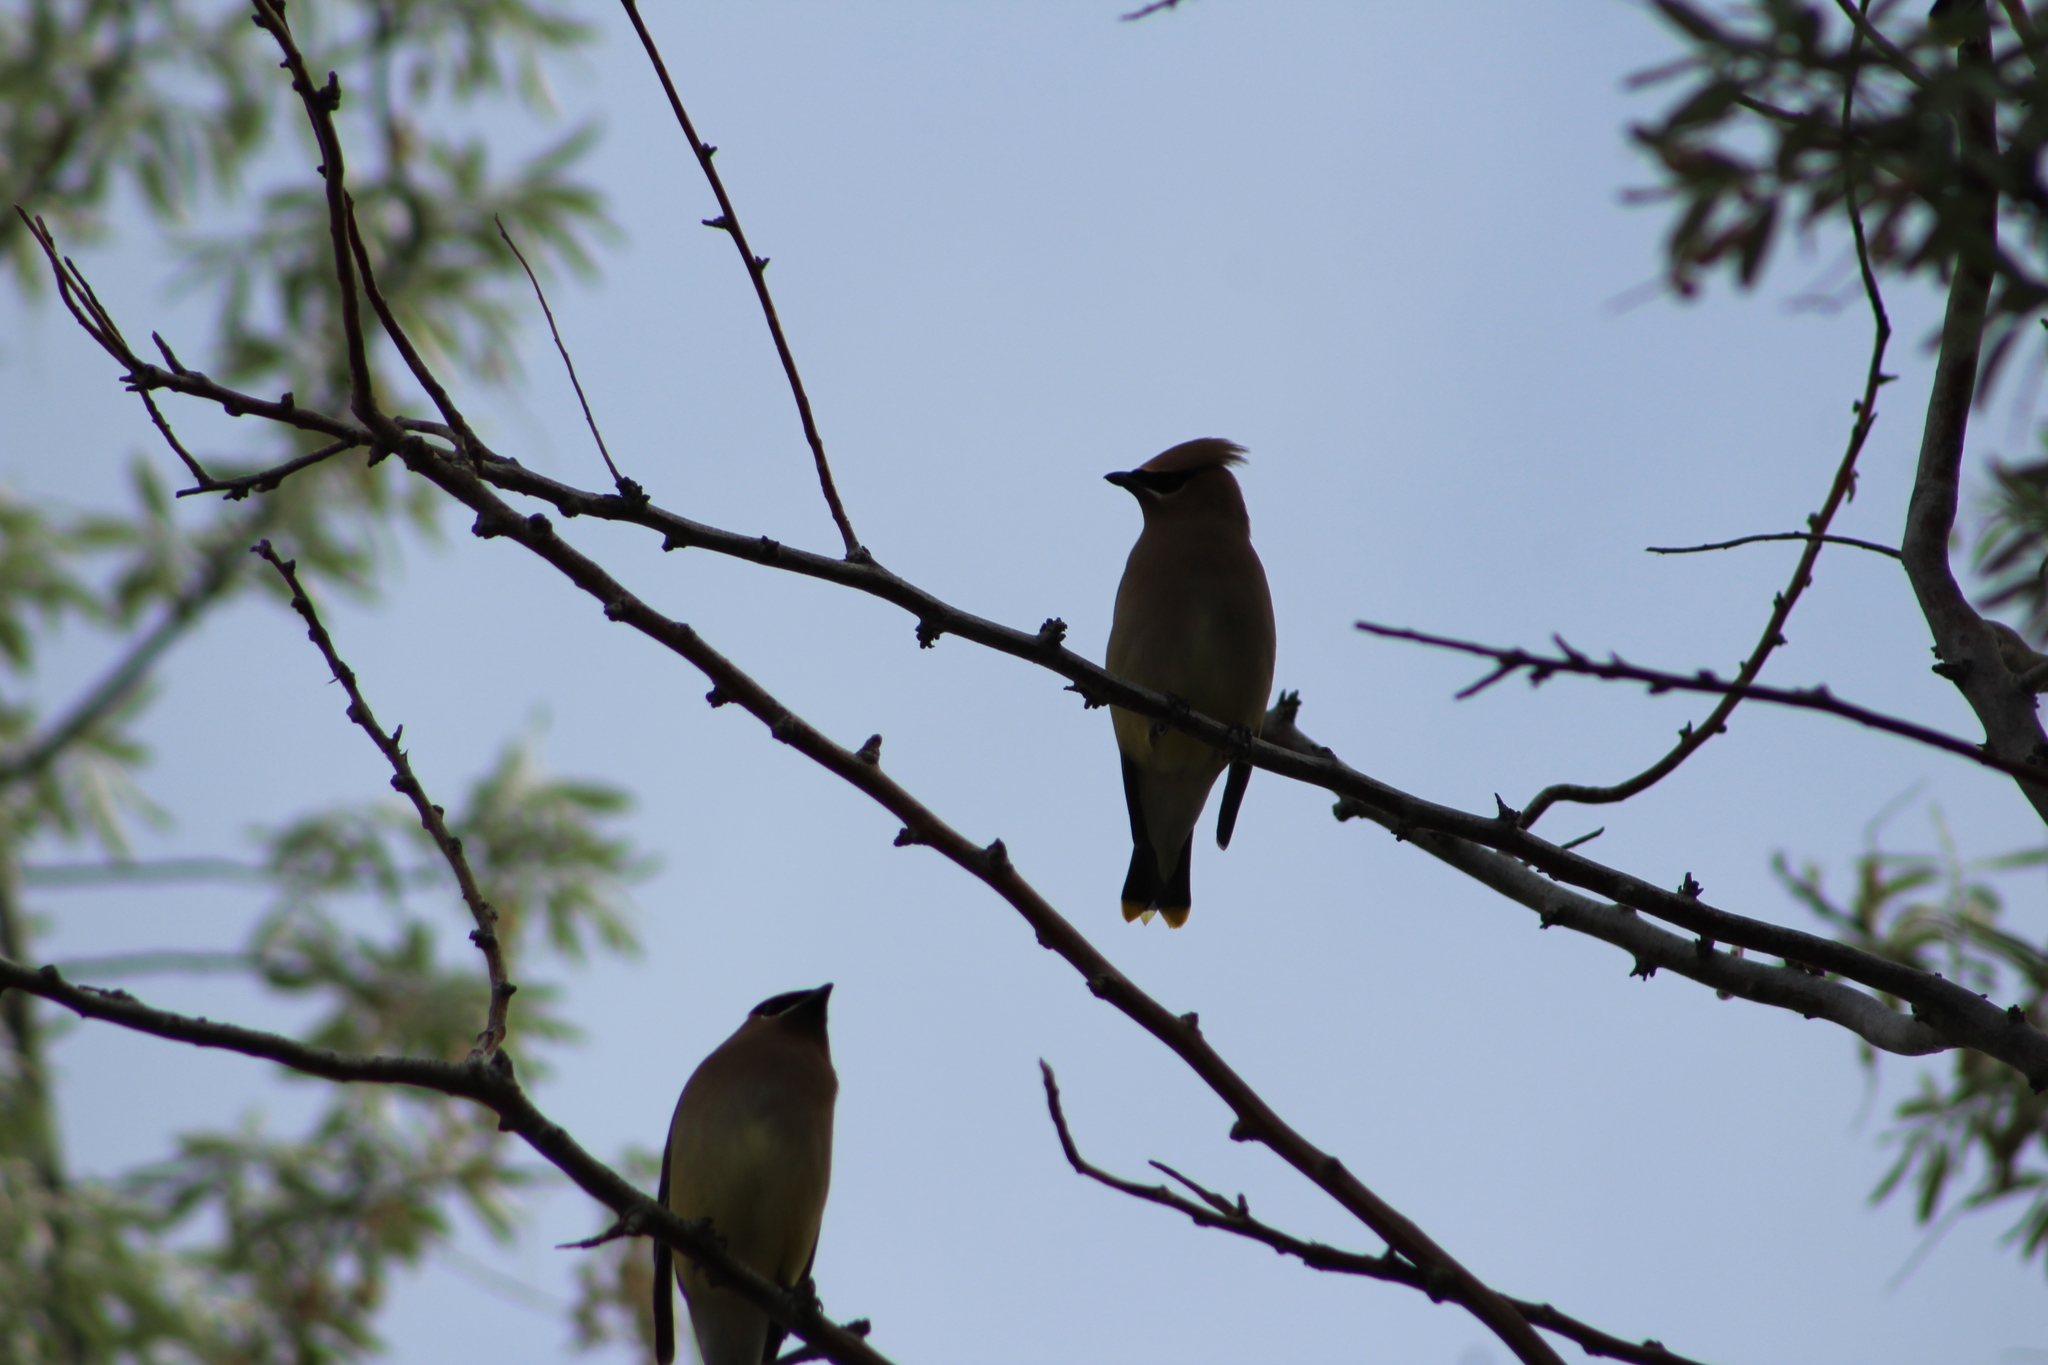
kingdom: Animalia
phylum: Chordata
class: Aves
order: Passeriformes
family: Bombycillidae
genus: Bombycilla
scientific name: Bombycilla cedrorum
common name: Cedar waxwing
